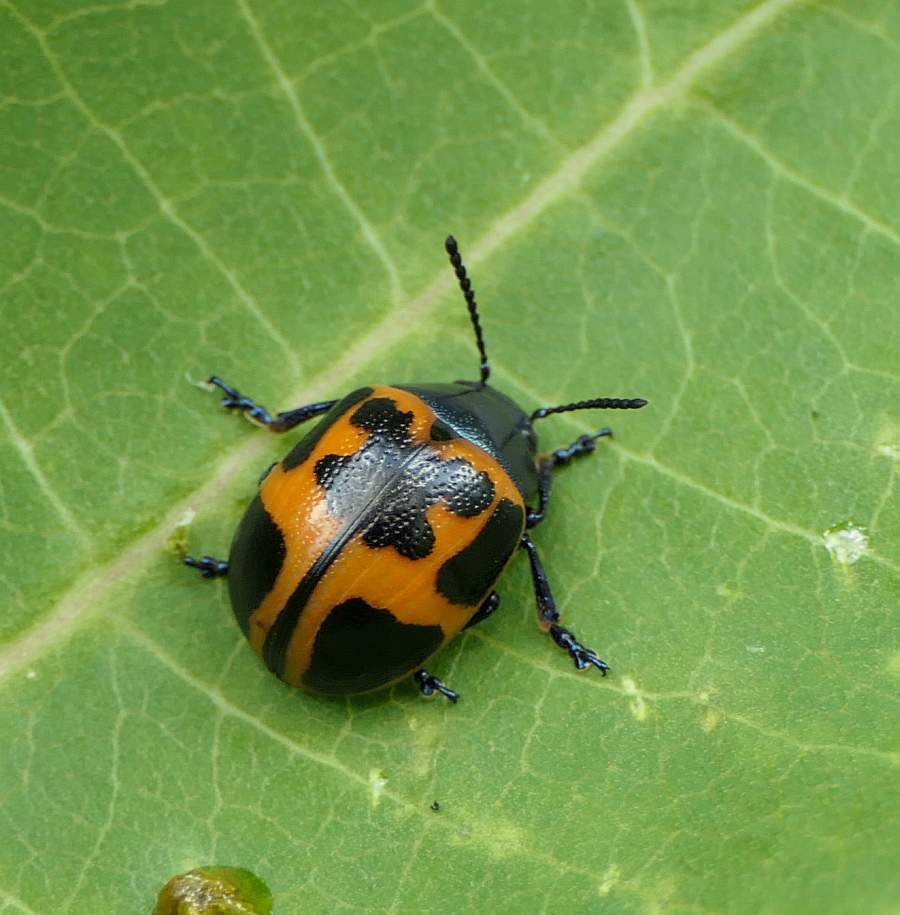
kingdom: Animalia
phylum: Arthropoda
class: Insecta
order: Coleoptera
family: Chrysomelidae
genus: Labidomera
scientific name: Labidomera clivicollis
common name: Swamp milkweed leaf beetle
